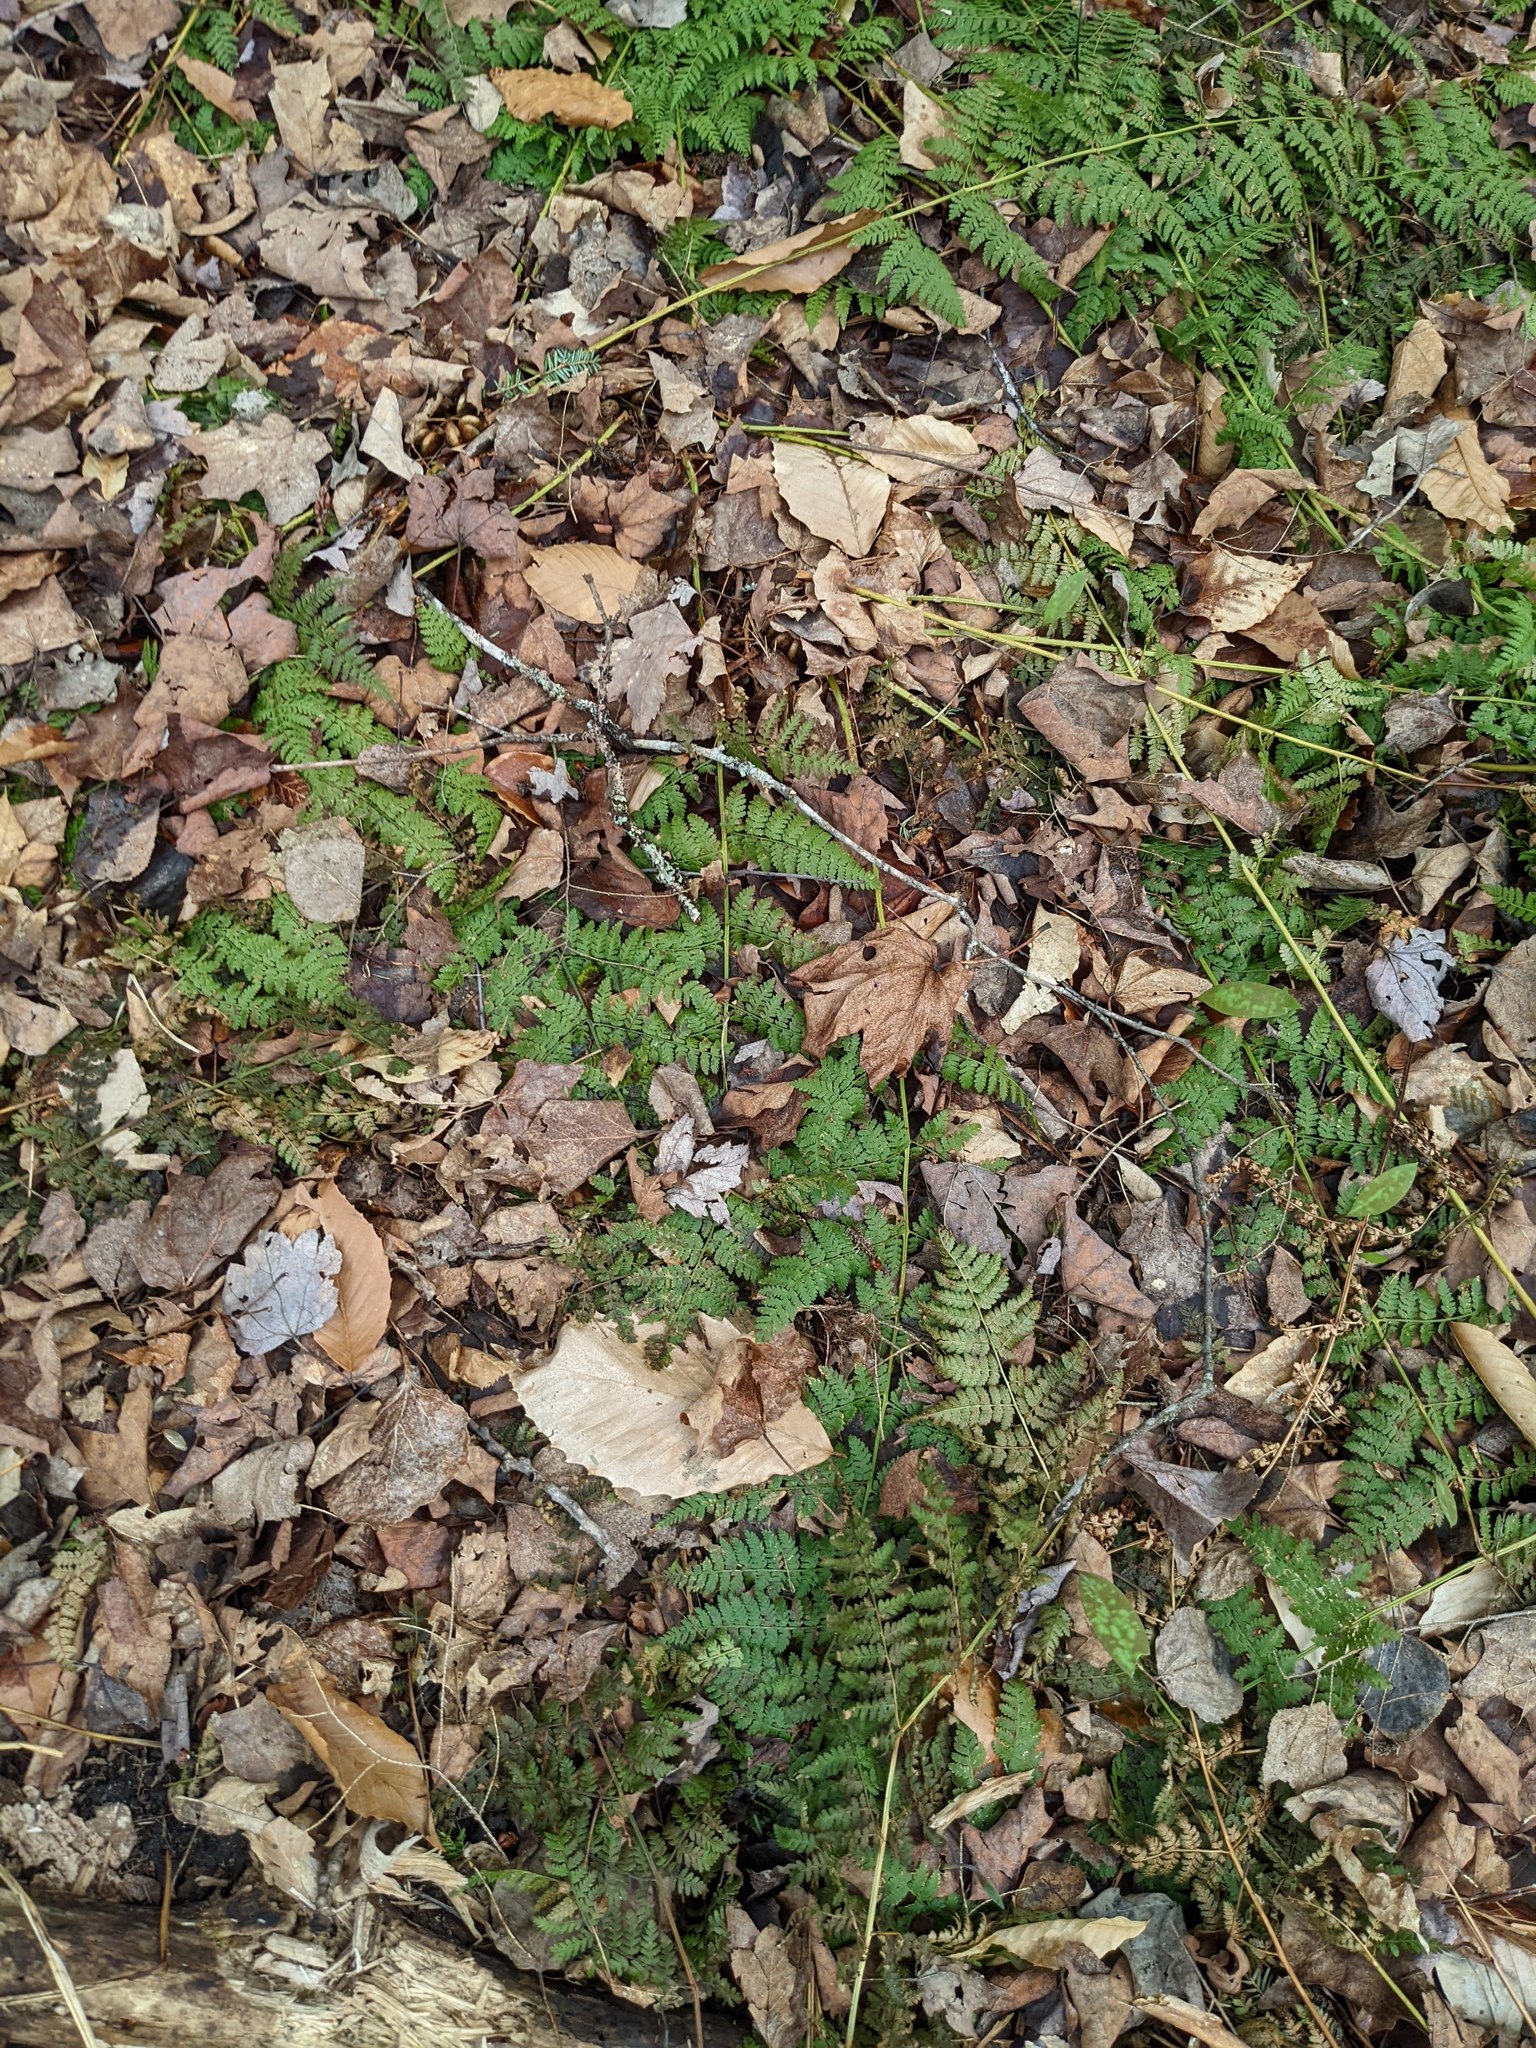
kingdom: Plantae
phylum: Tracheophyta
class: Polypodiopsida
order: Polypodiales
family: Dryopteridaceae
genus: Dryopteris
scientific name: Dryopteris intermedia
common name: Evergreen wood fern
